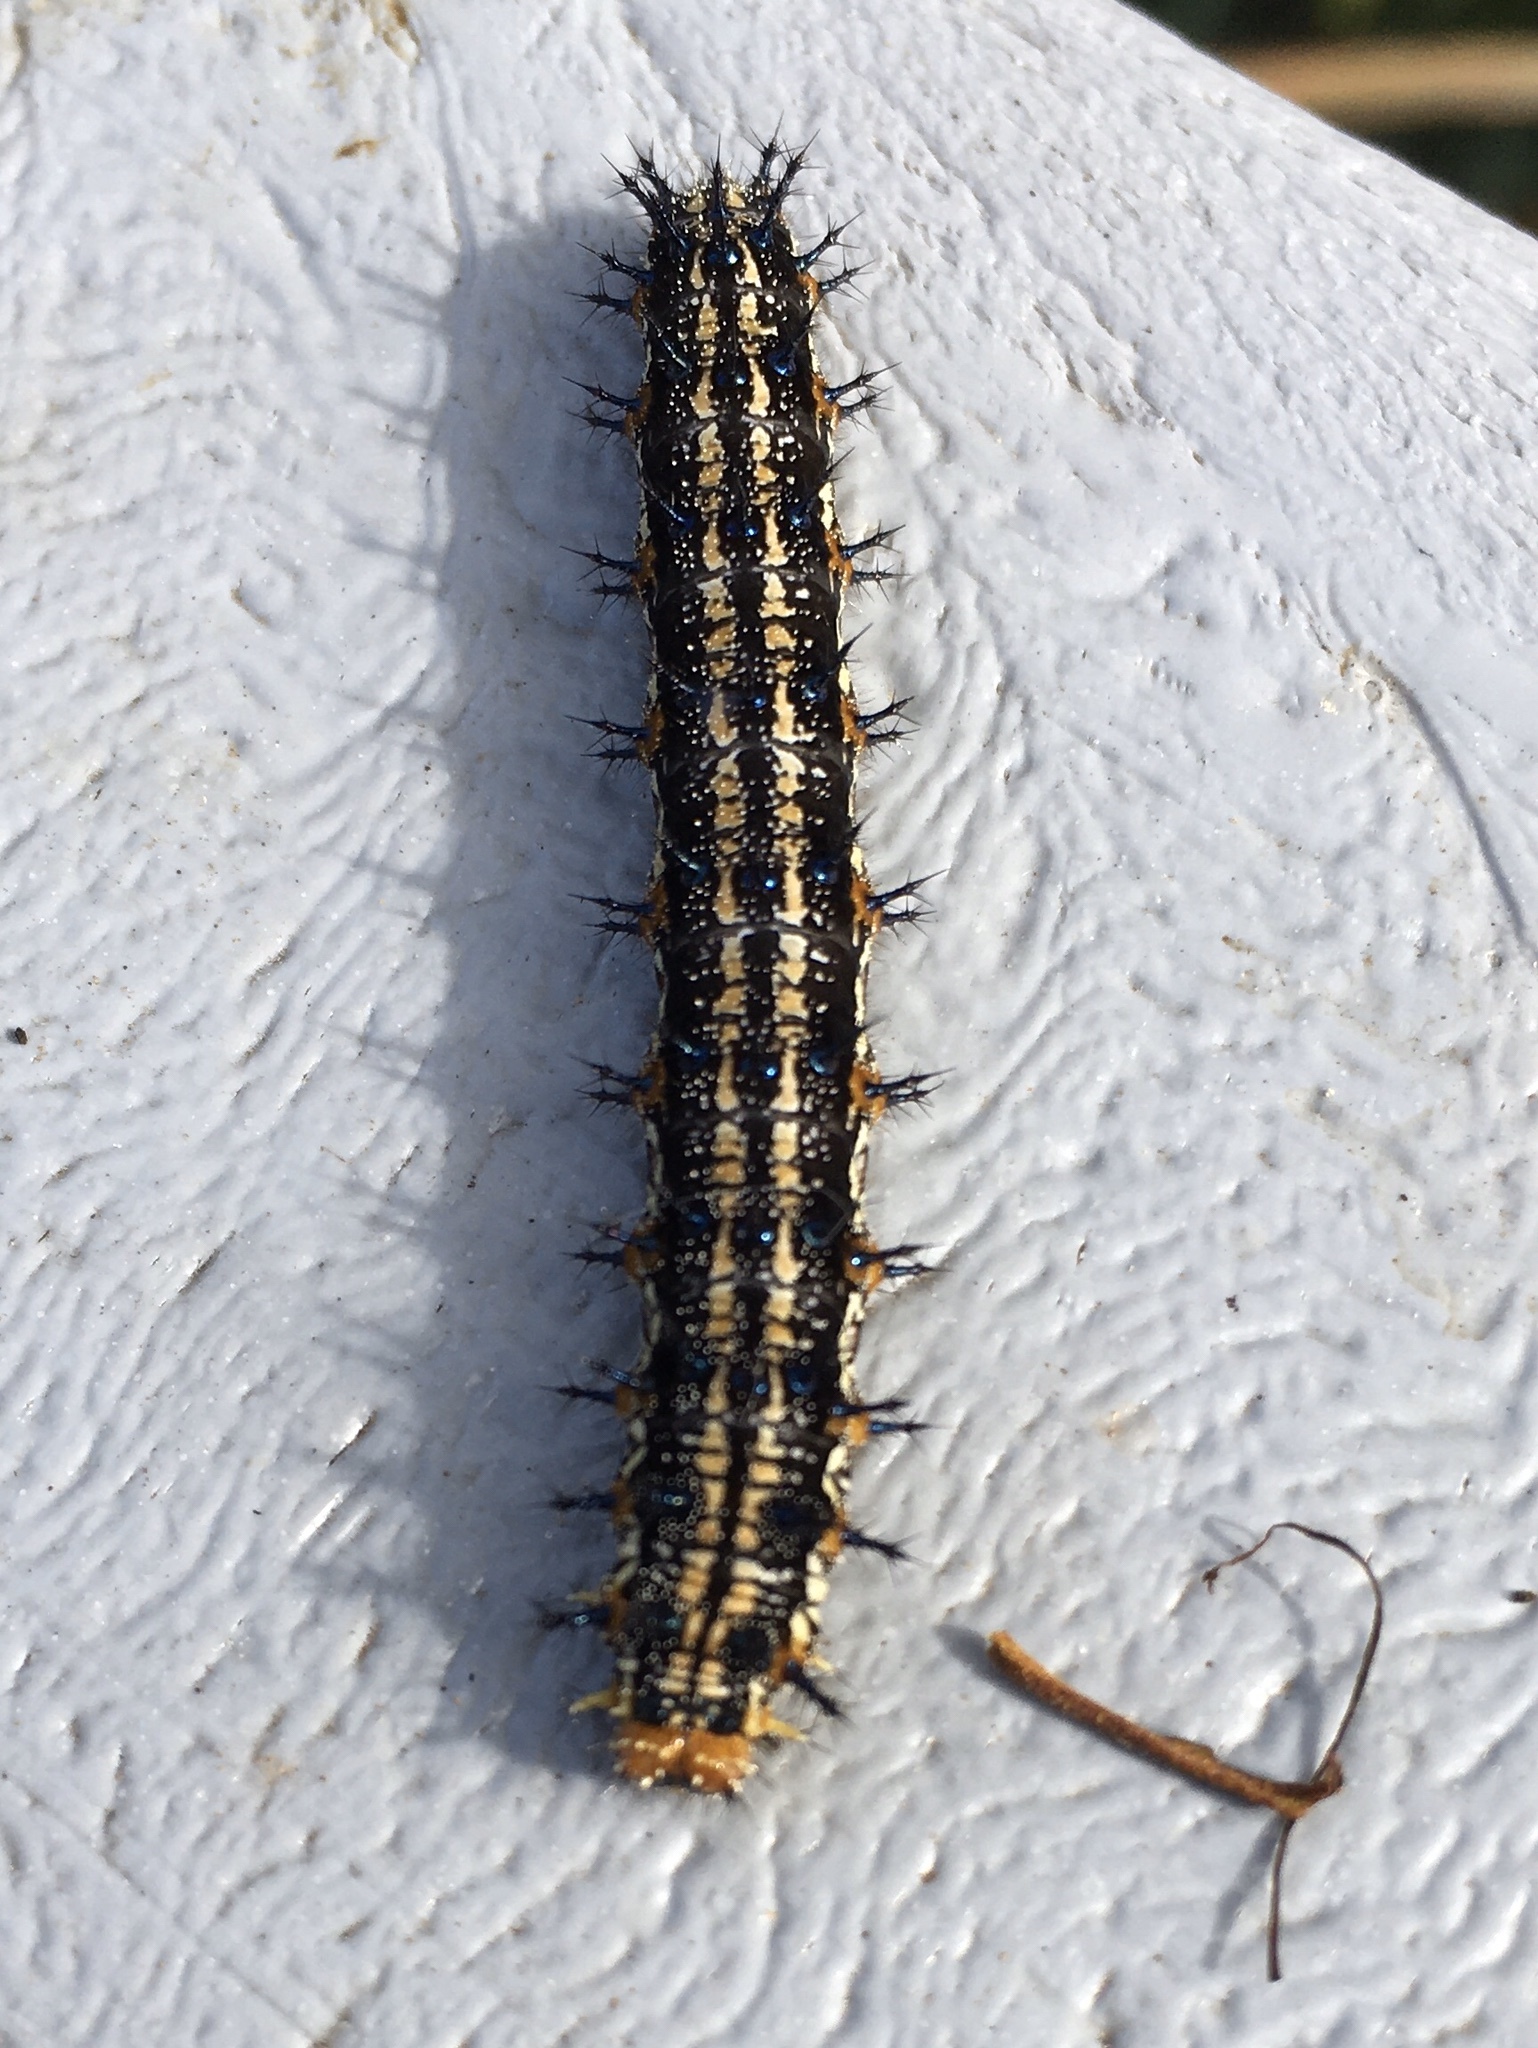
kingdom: Animalia
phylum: Arthropoda
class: Insecta
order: Lepidoptera
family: Nymphalidae
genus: Junonia
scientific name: Junonia coenia
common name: Common buckeye
